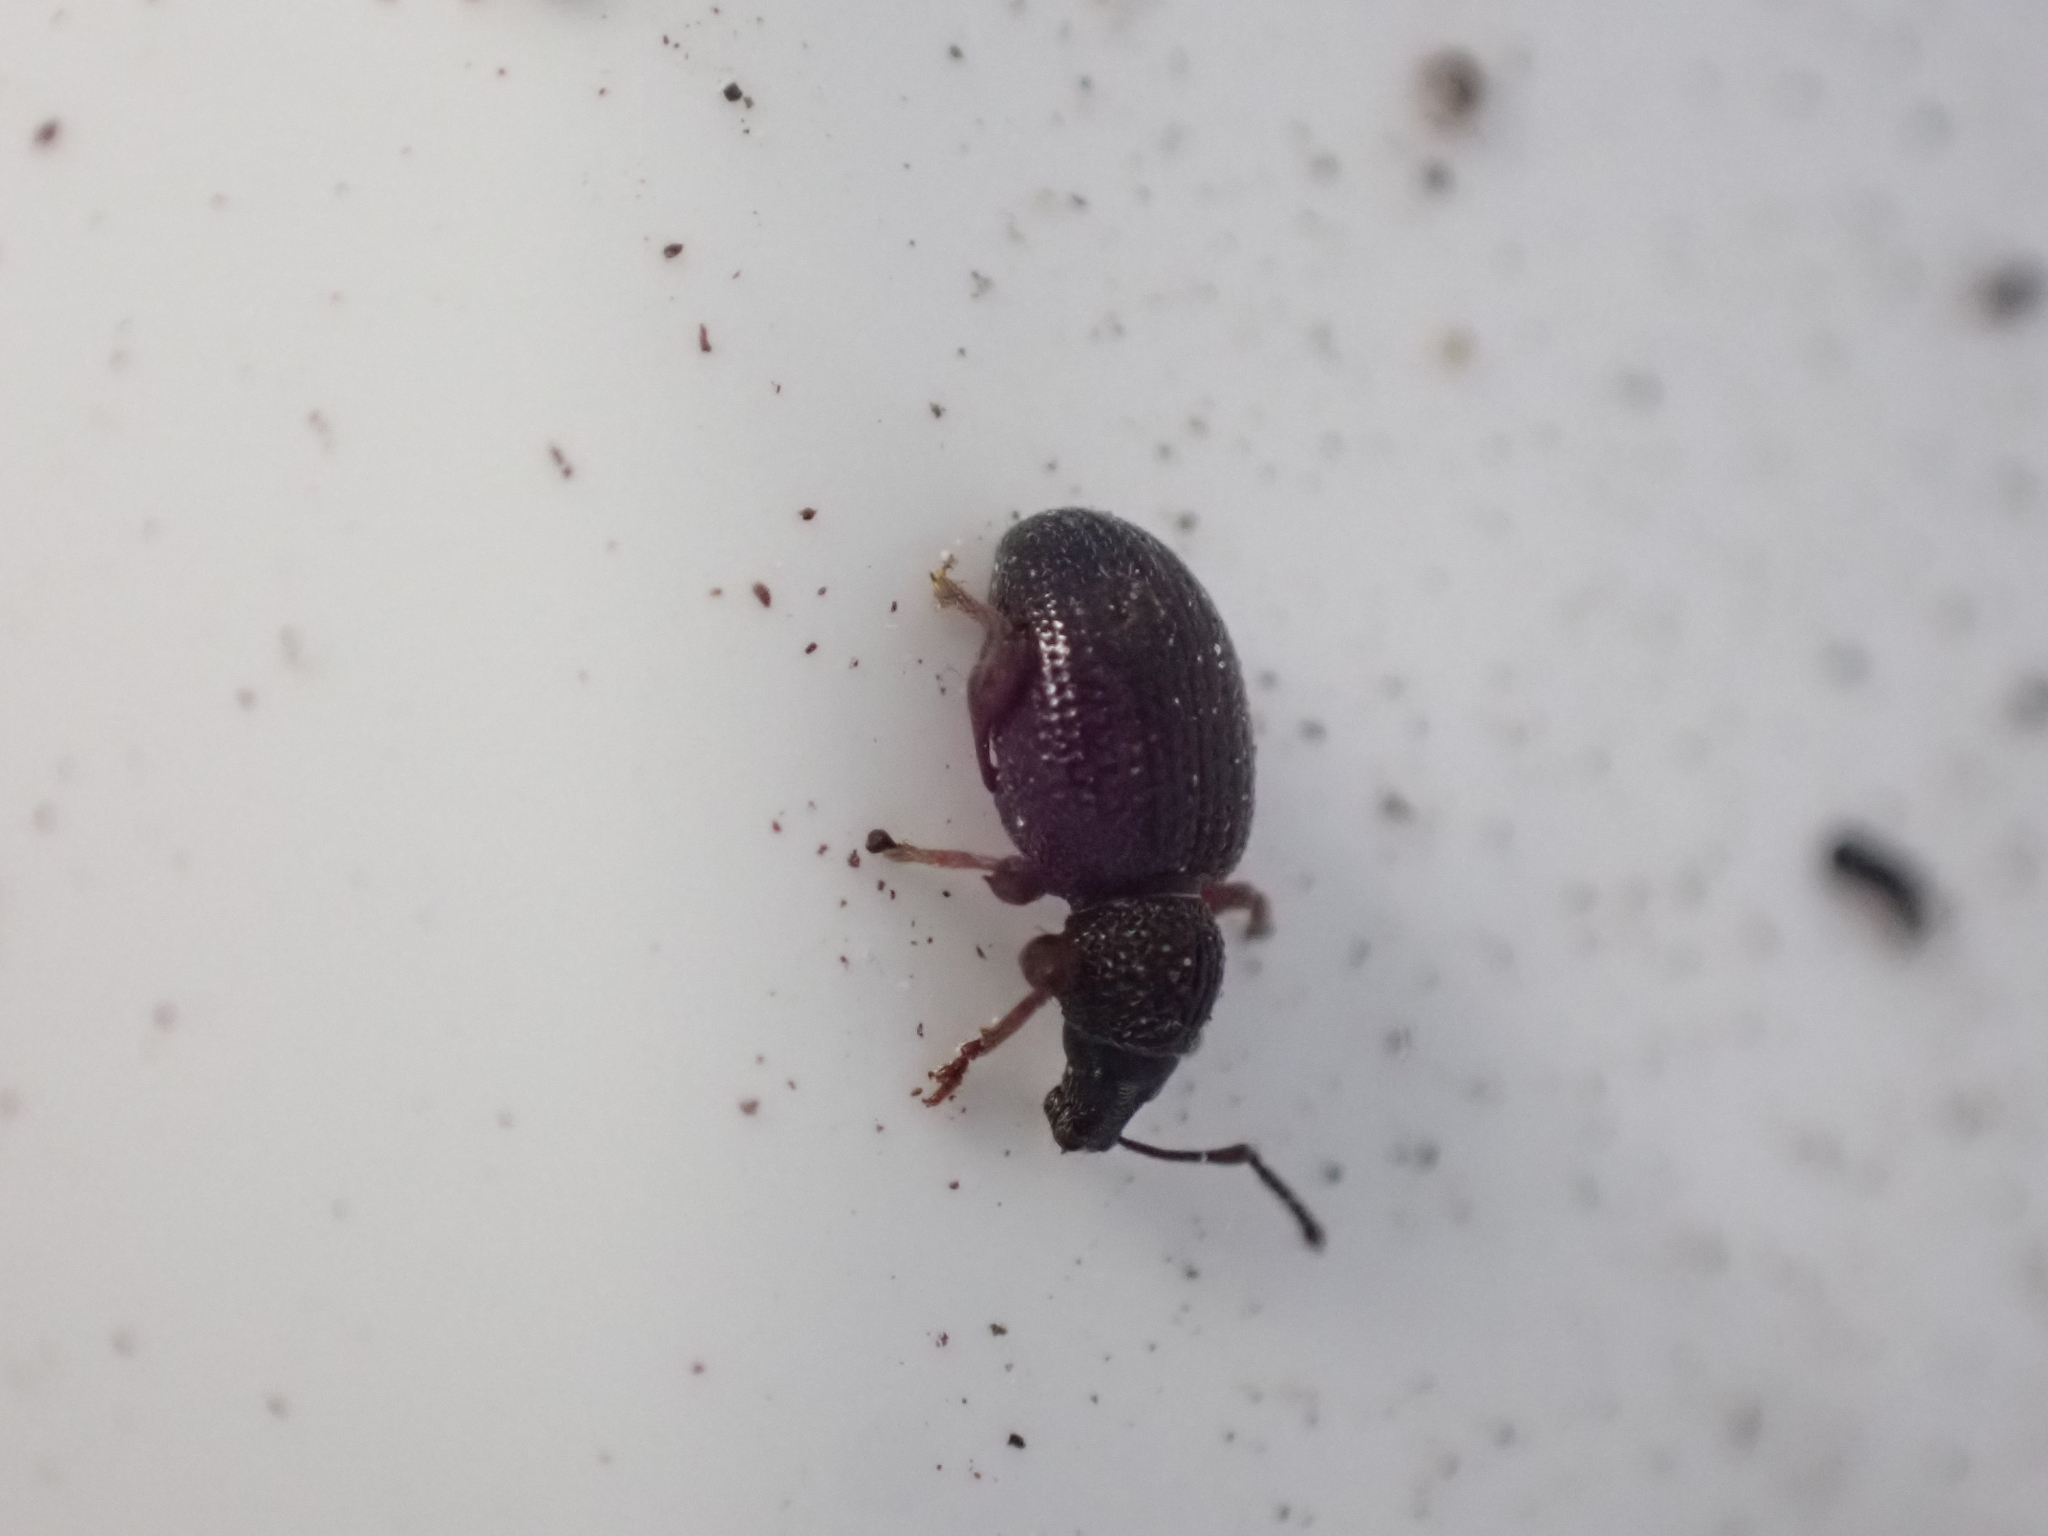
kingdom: Animalia
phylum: Arthropoda
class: Insecta
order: Coleoptera
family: Curculionidae
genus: Otiorhynchus
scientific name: Otiorhynchus ovatus
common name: Strawberry root weevil
